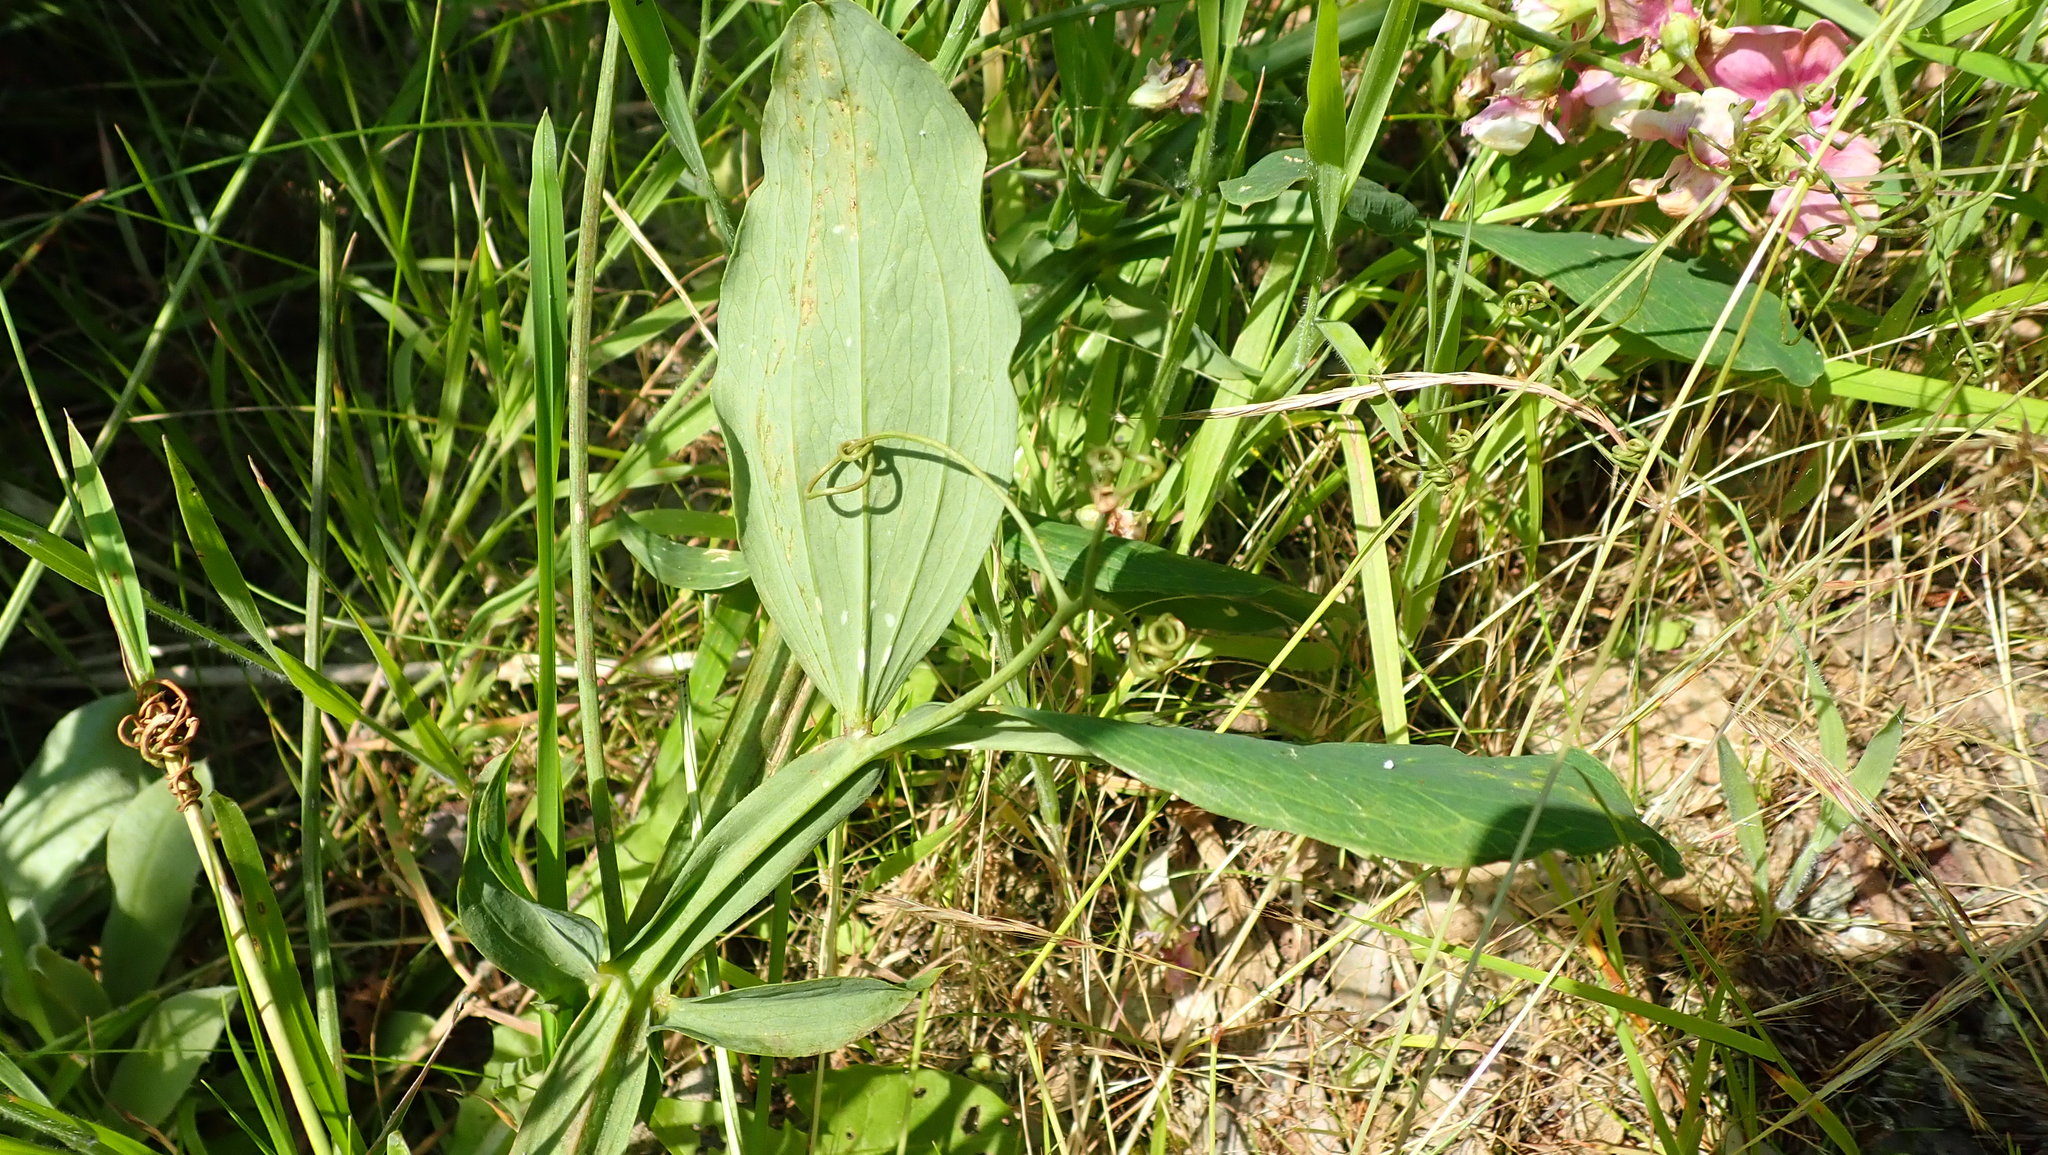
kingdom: Plantae
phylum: Tracheophyta
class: Magnoliopsida
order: Fabales
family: Fabaceae
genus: Lathyrus
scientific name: Lathyrus latifolius
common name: Perennial pea
